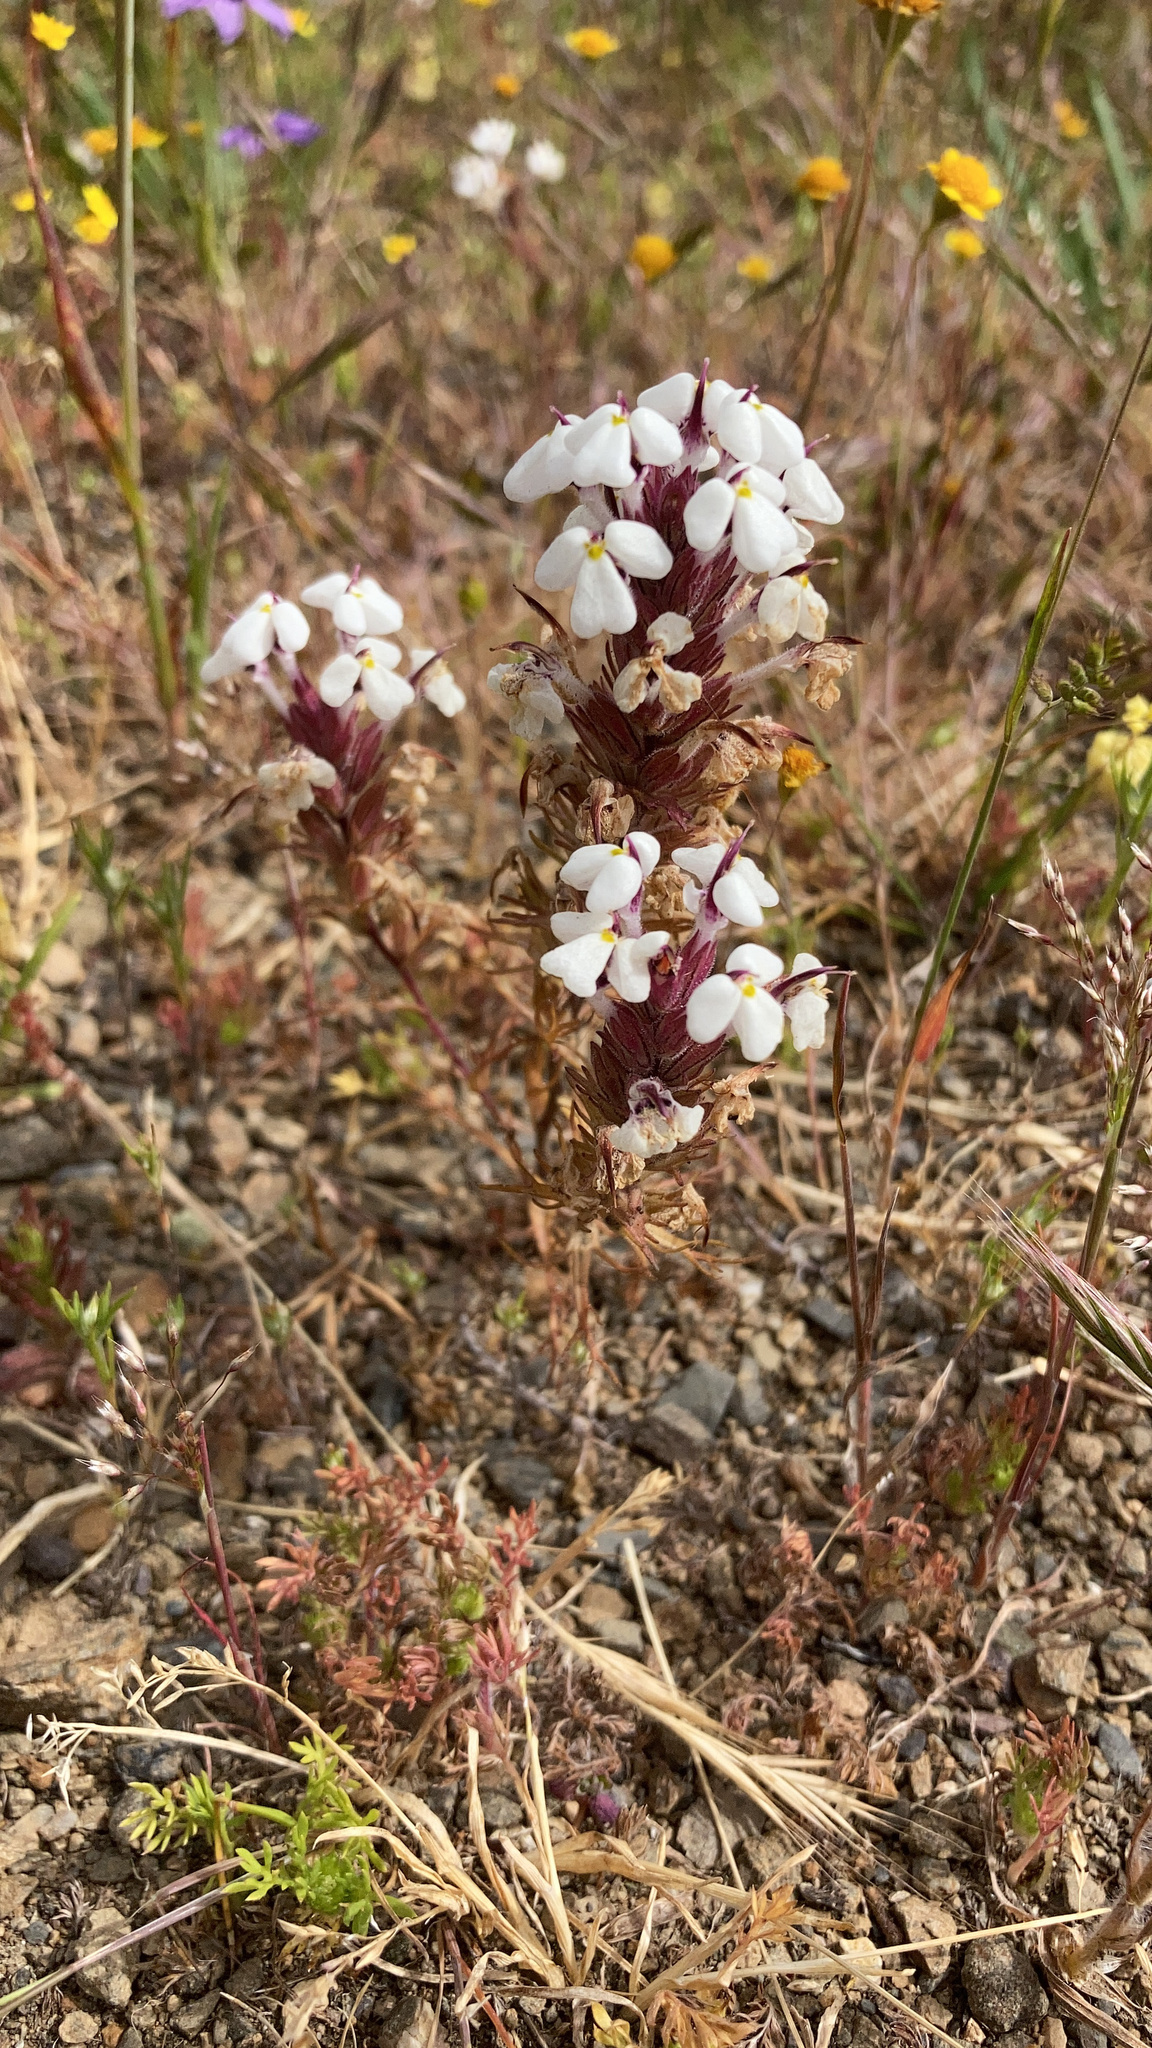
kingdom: Plantae
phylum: Tracheophyta
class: Magnoliopsida
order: Lamiales
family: Orobanchaceae
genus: Triphysaria
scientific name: Triphysaria eriantha
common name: Johnny-tuck
